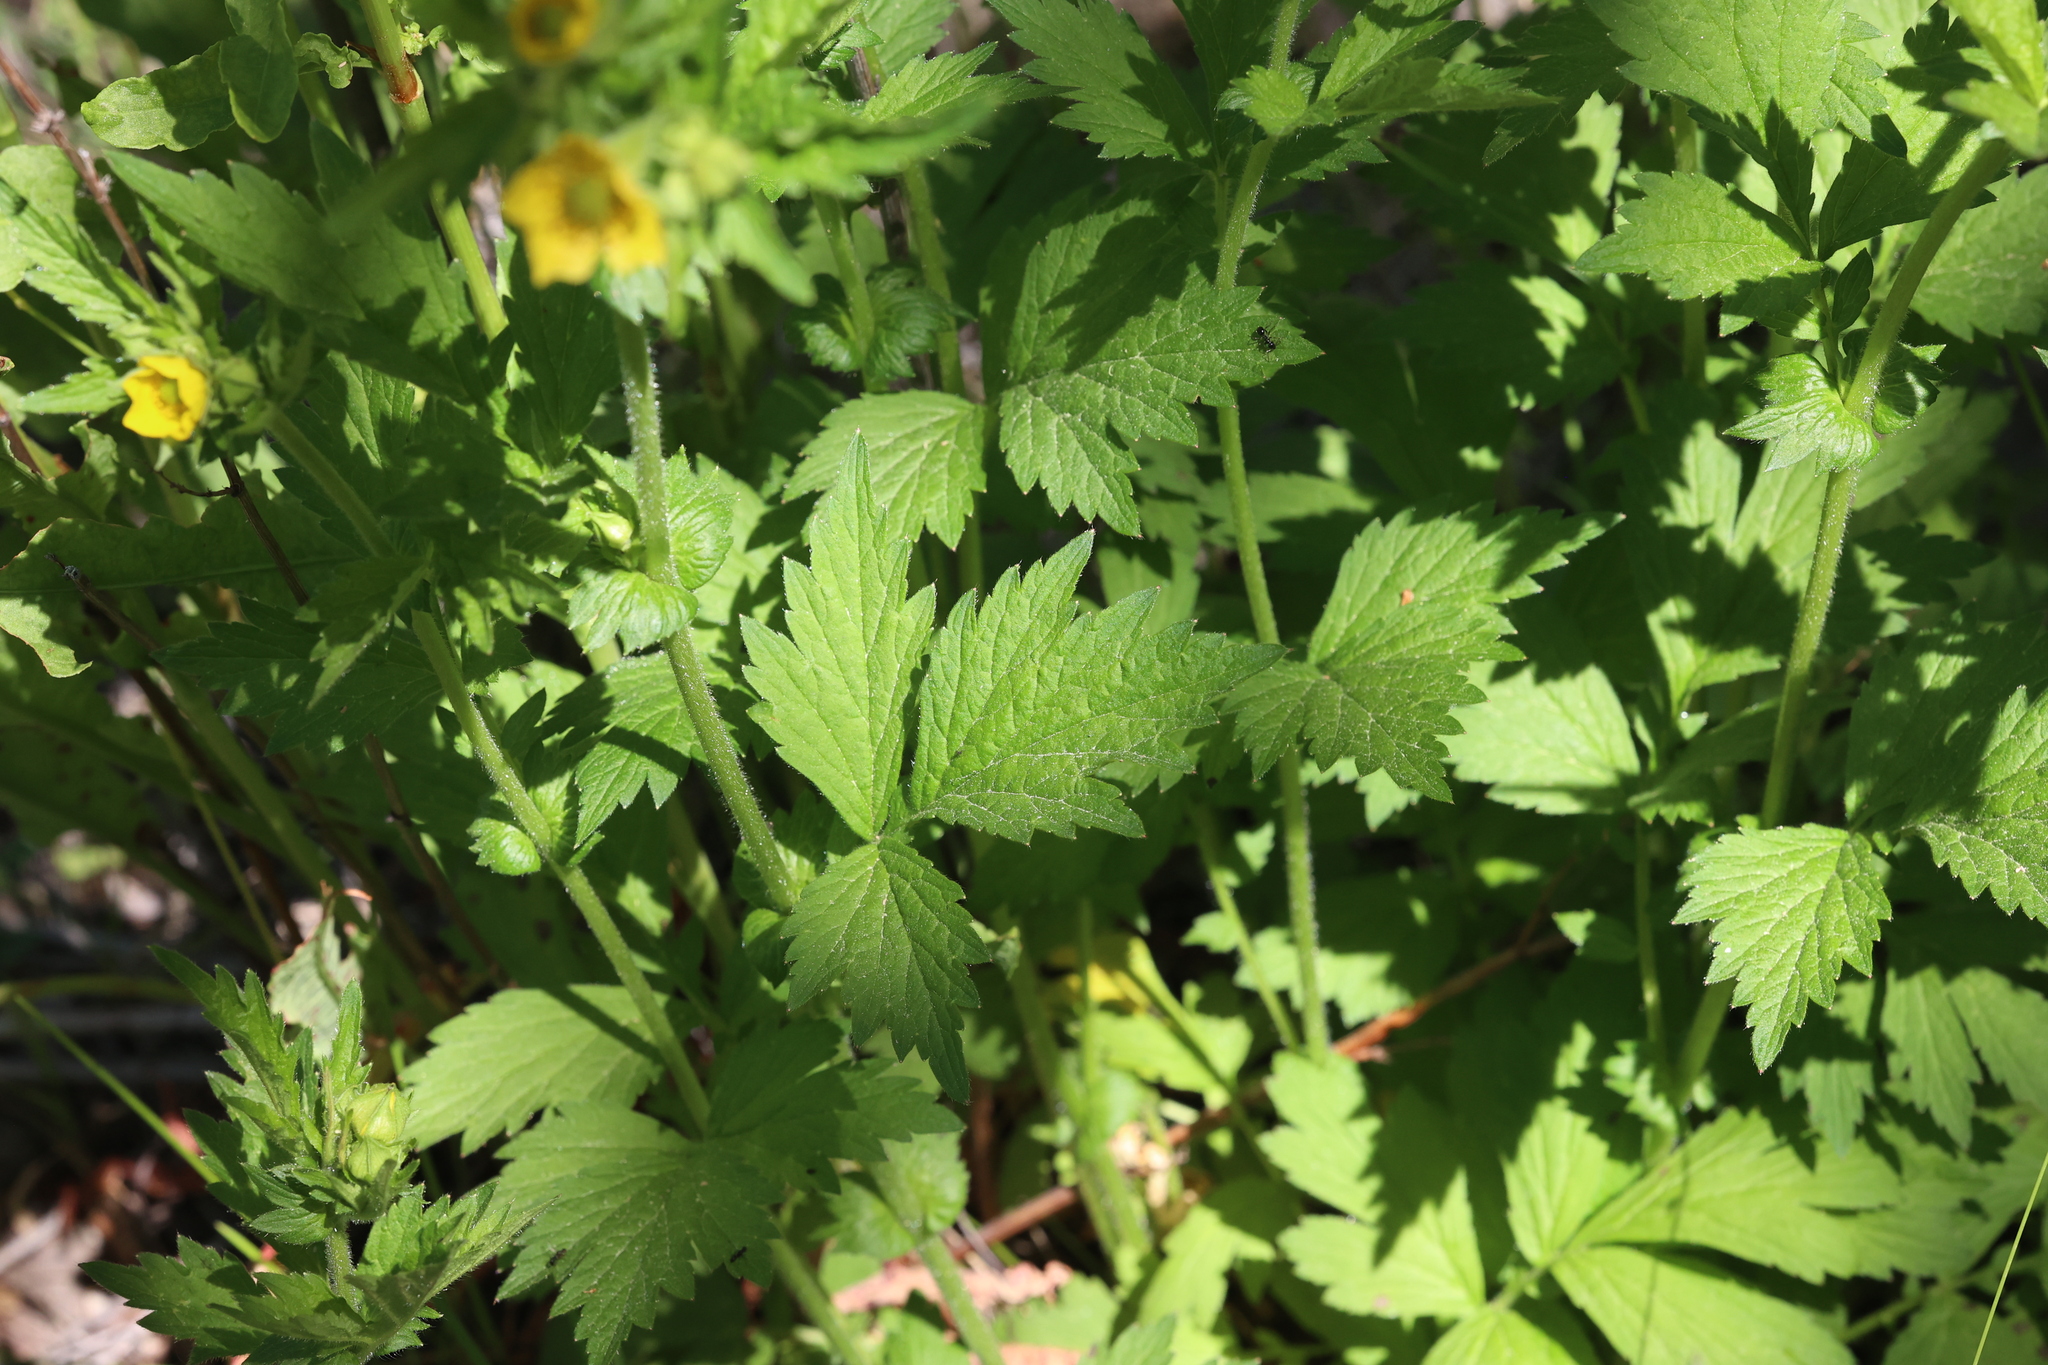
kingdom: Plantae
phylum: Tracheophyta
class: Magnoliopsida
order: Rosales
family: Rosaceae
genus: Geum
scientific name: Geum aleppicum
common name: Yellow avens
